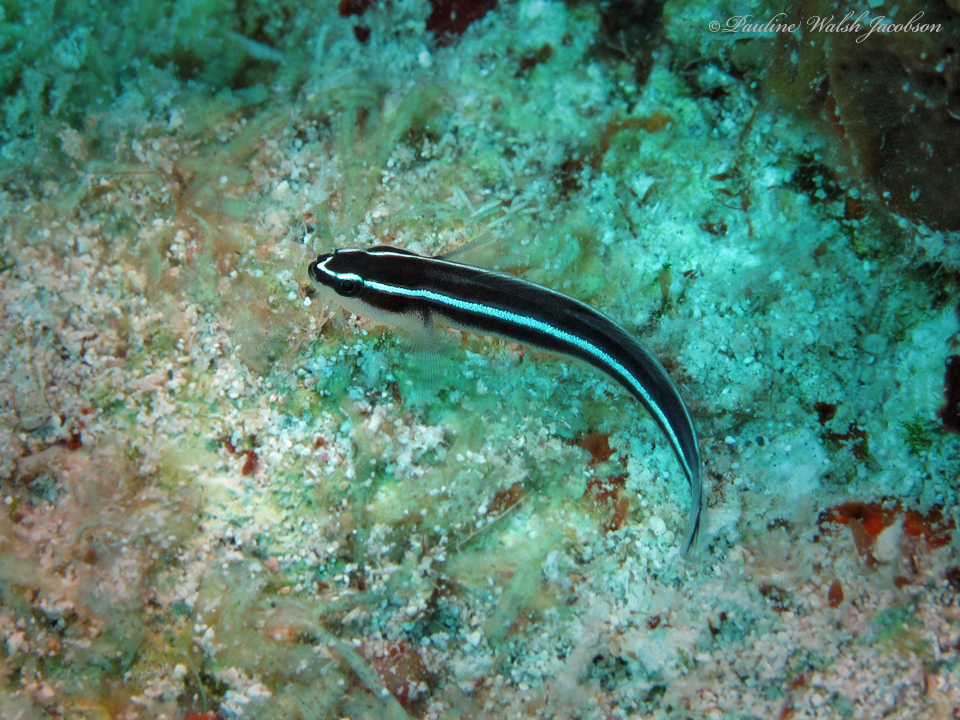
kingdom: Animalia
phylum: Chordata
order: Perciformes
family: Gobiidae
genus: Elacatinus
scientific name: Elacatinus prochilos
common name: Broadstripe goby
